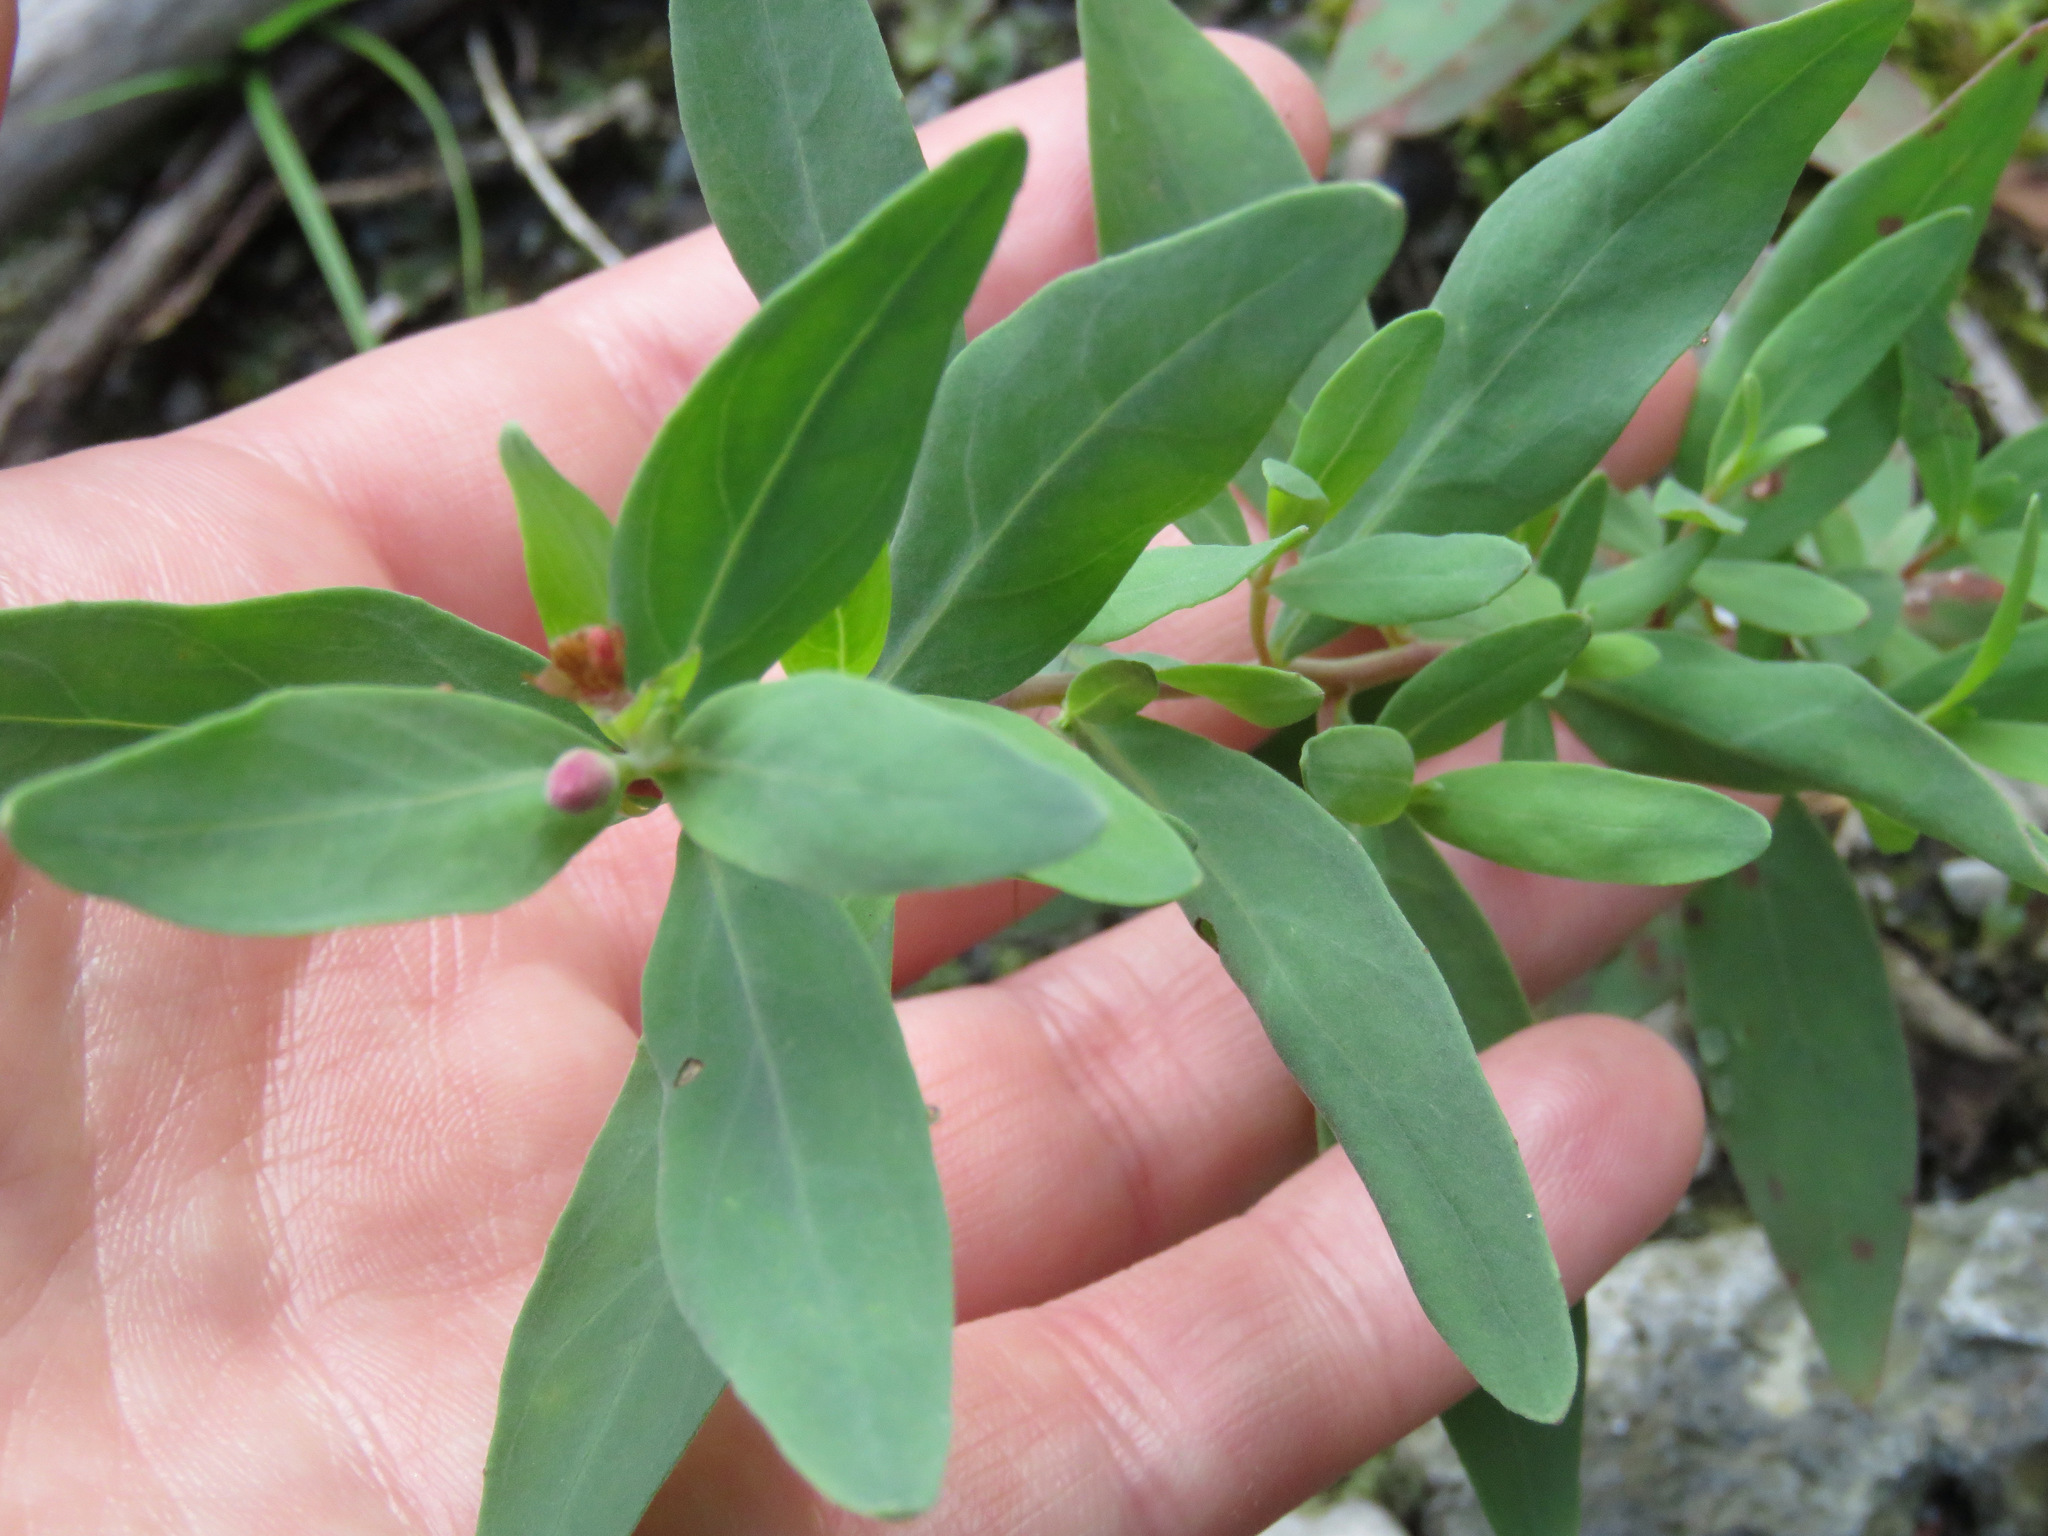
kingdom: Plantae
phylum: Tracheophyta
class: Magnoliopsida
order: Myrtales
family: Onagraceae
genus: Chamaenerion
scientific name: Chamaenerion latifolium
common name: Dwarf fireweed
